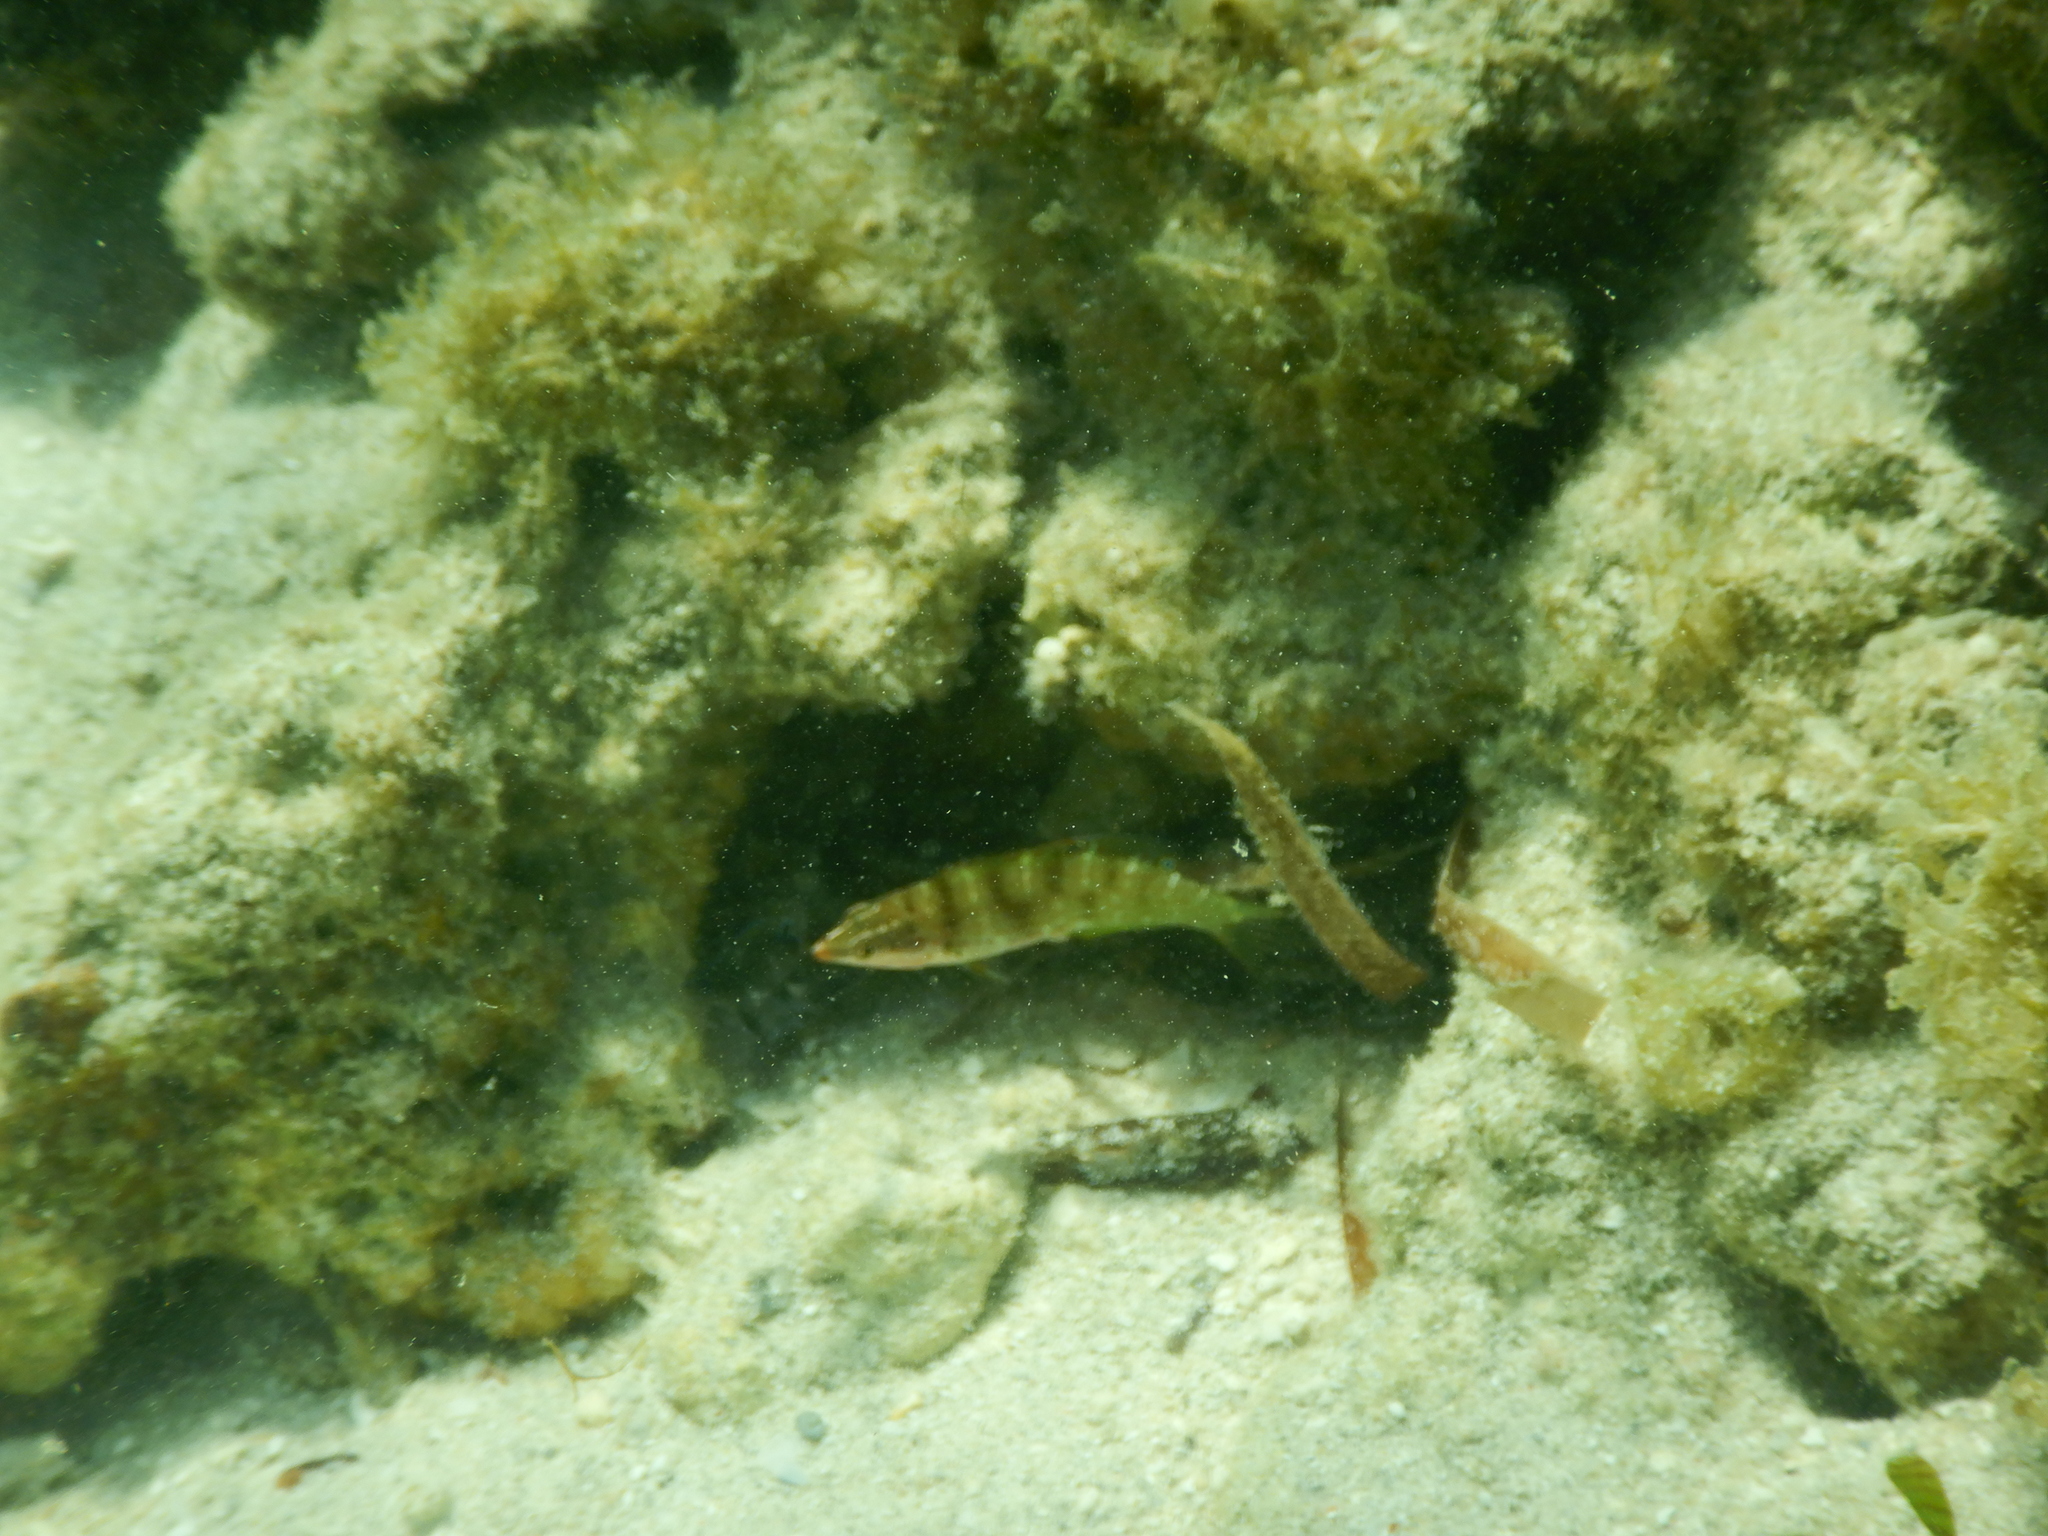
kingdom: Animalia
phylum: Chordata
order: Perciformes
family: Labridae
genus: Coris
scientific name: Coris batuensis
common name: Batu coris
